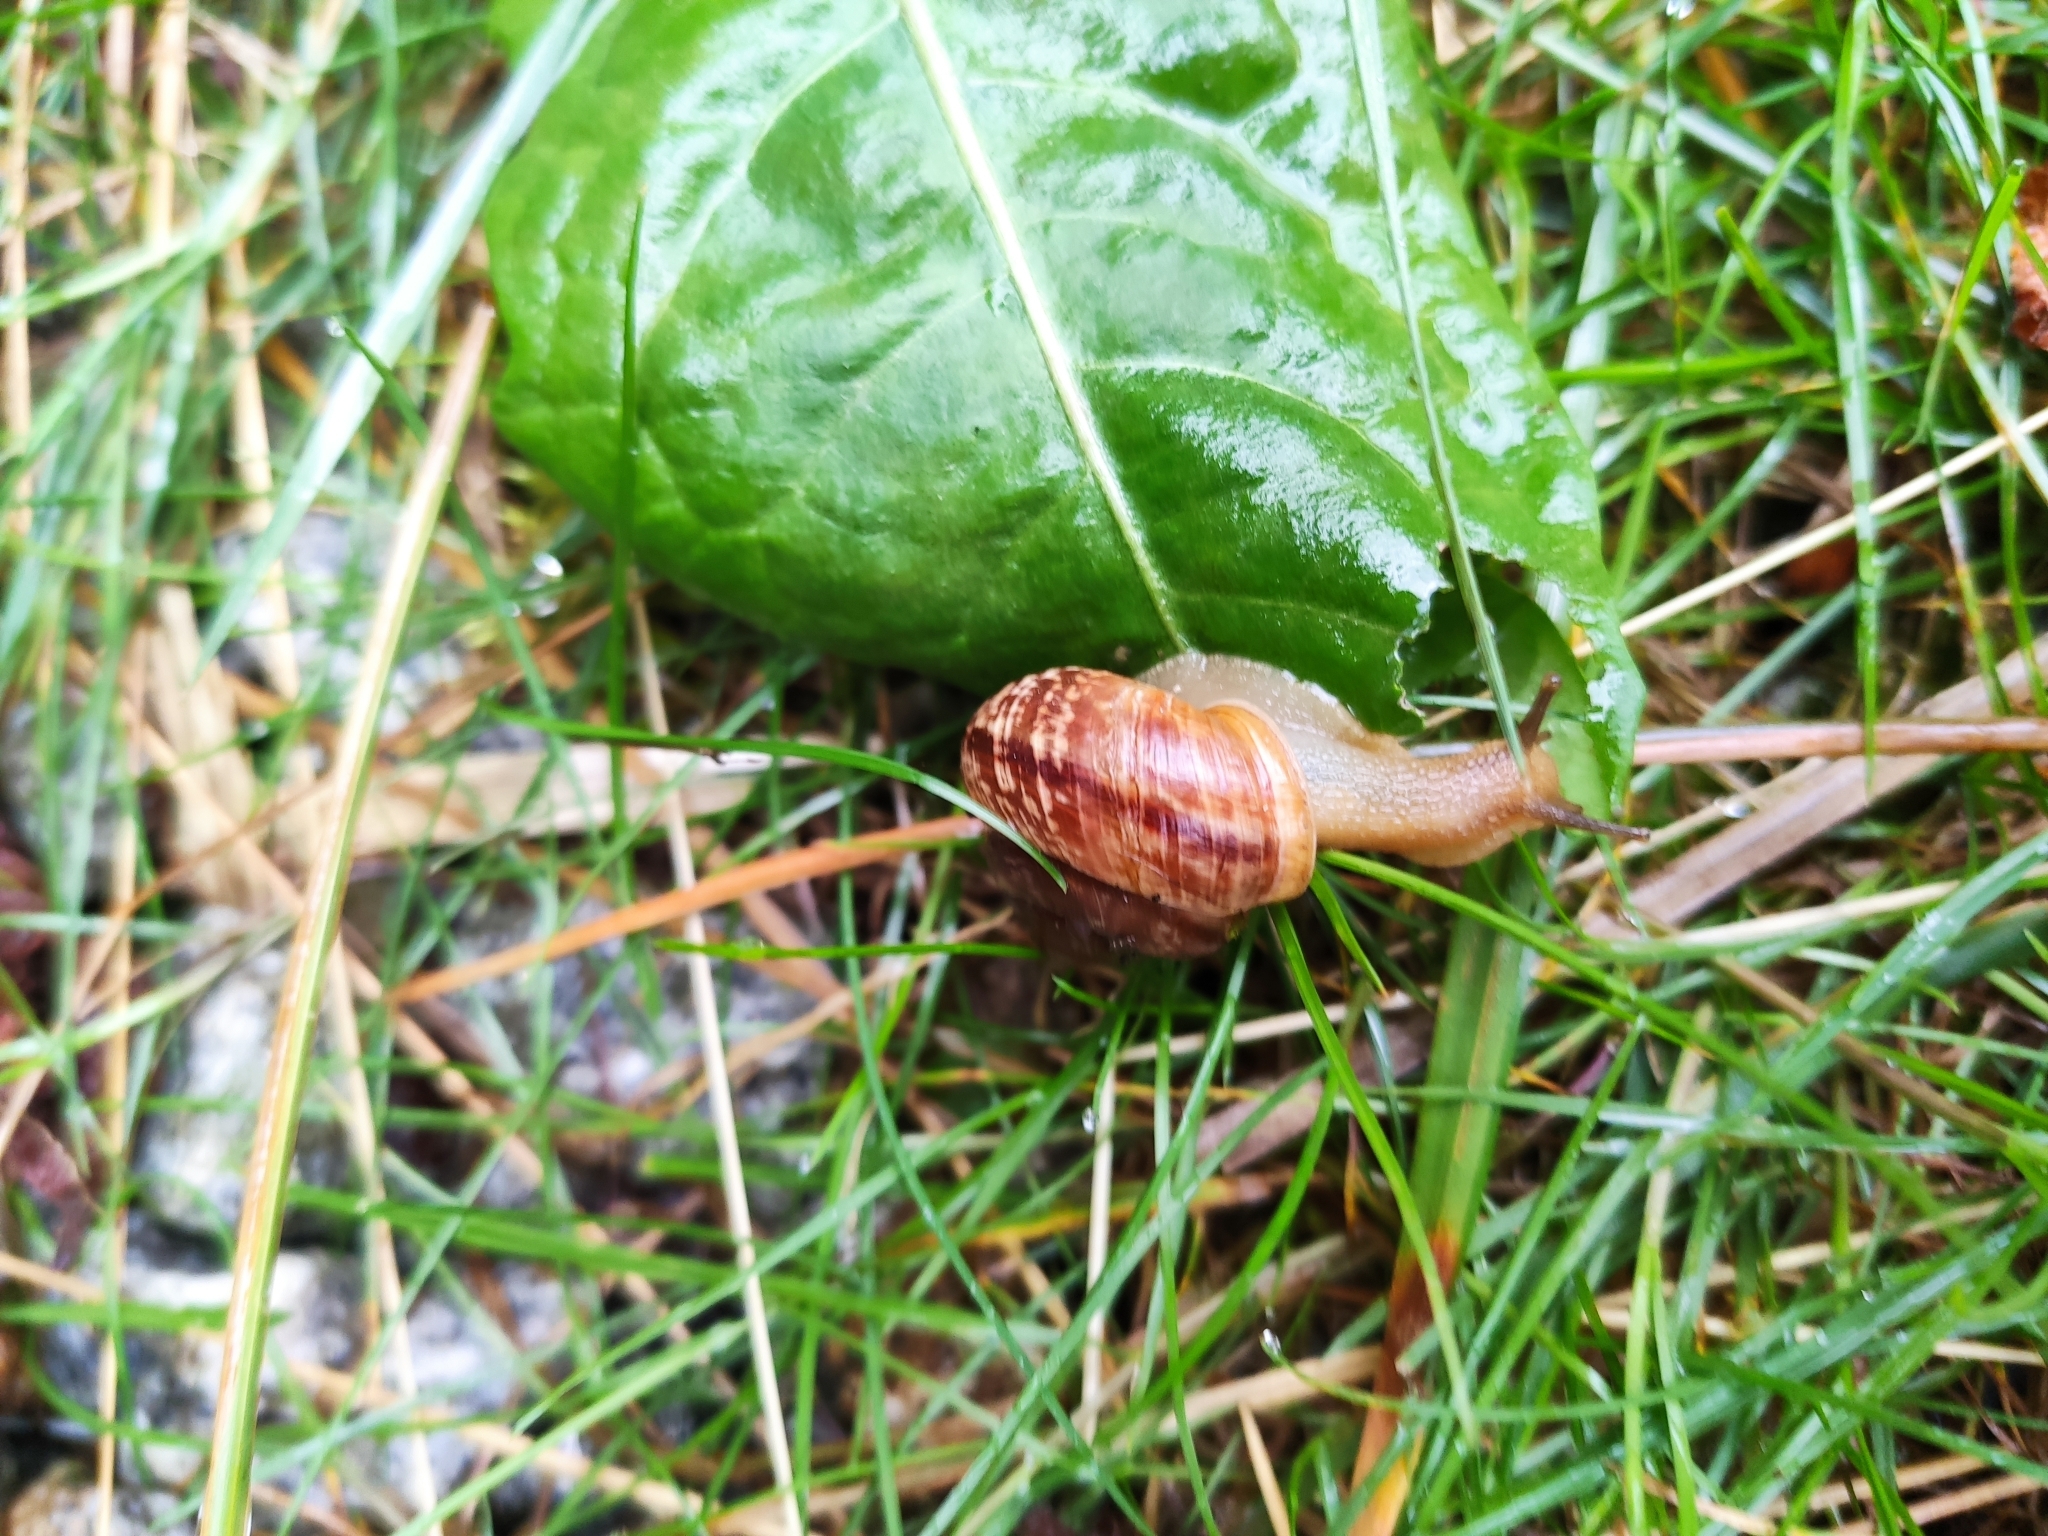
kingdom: Animalia
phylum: Mollusca
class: Gastropoda
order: Stylommatophora
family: Helicidae
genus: Arianta
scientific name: Arianta arbustorum
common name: Copse snail
